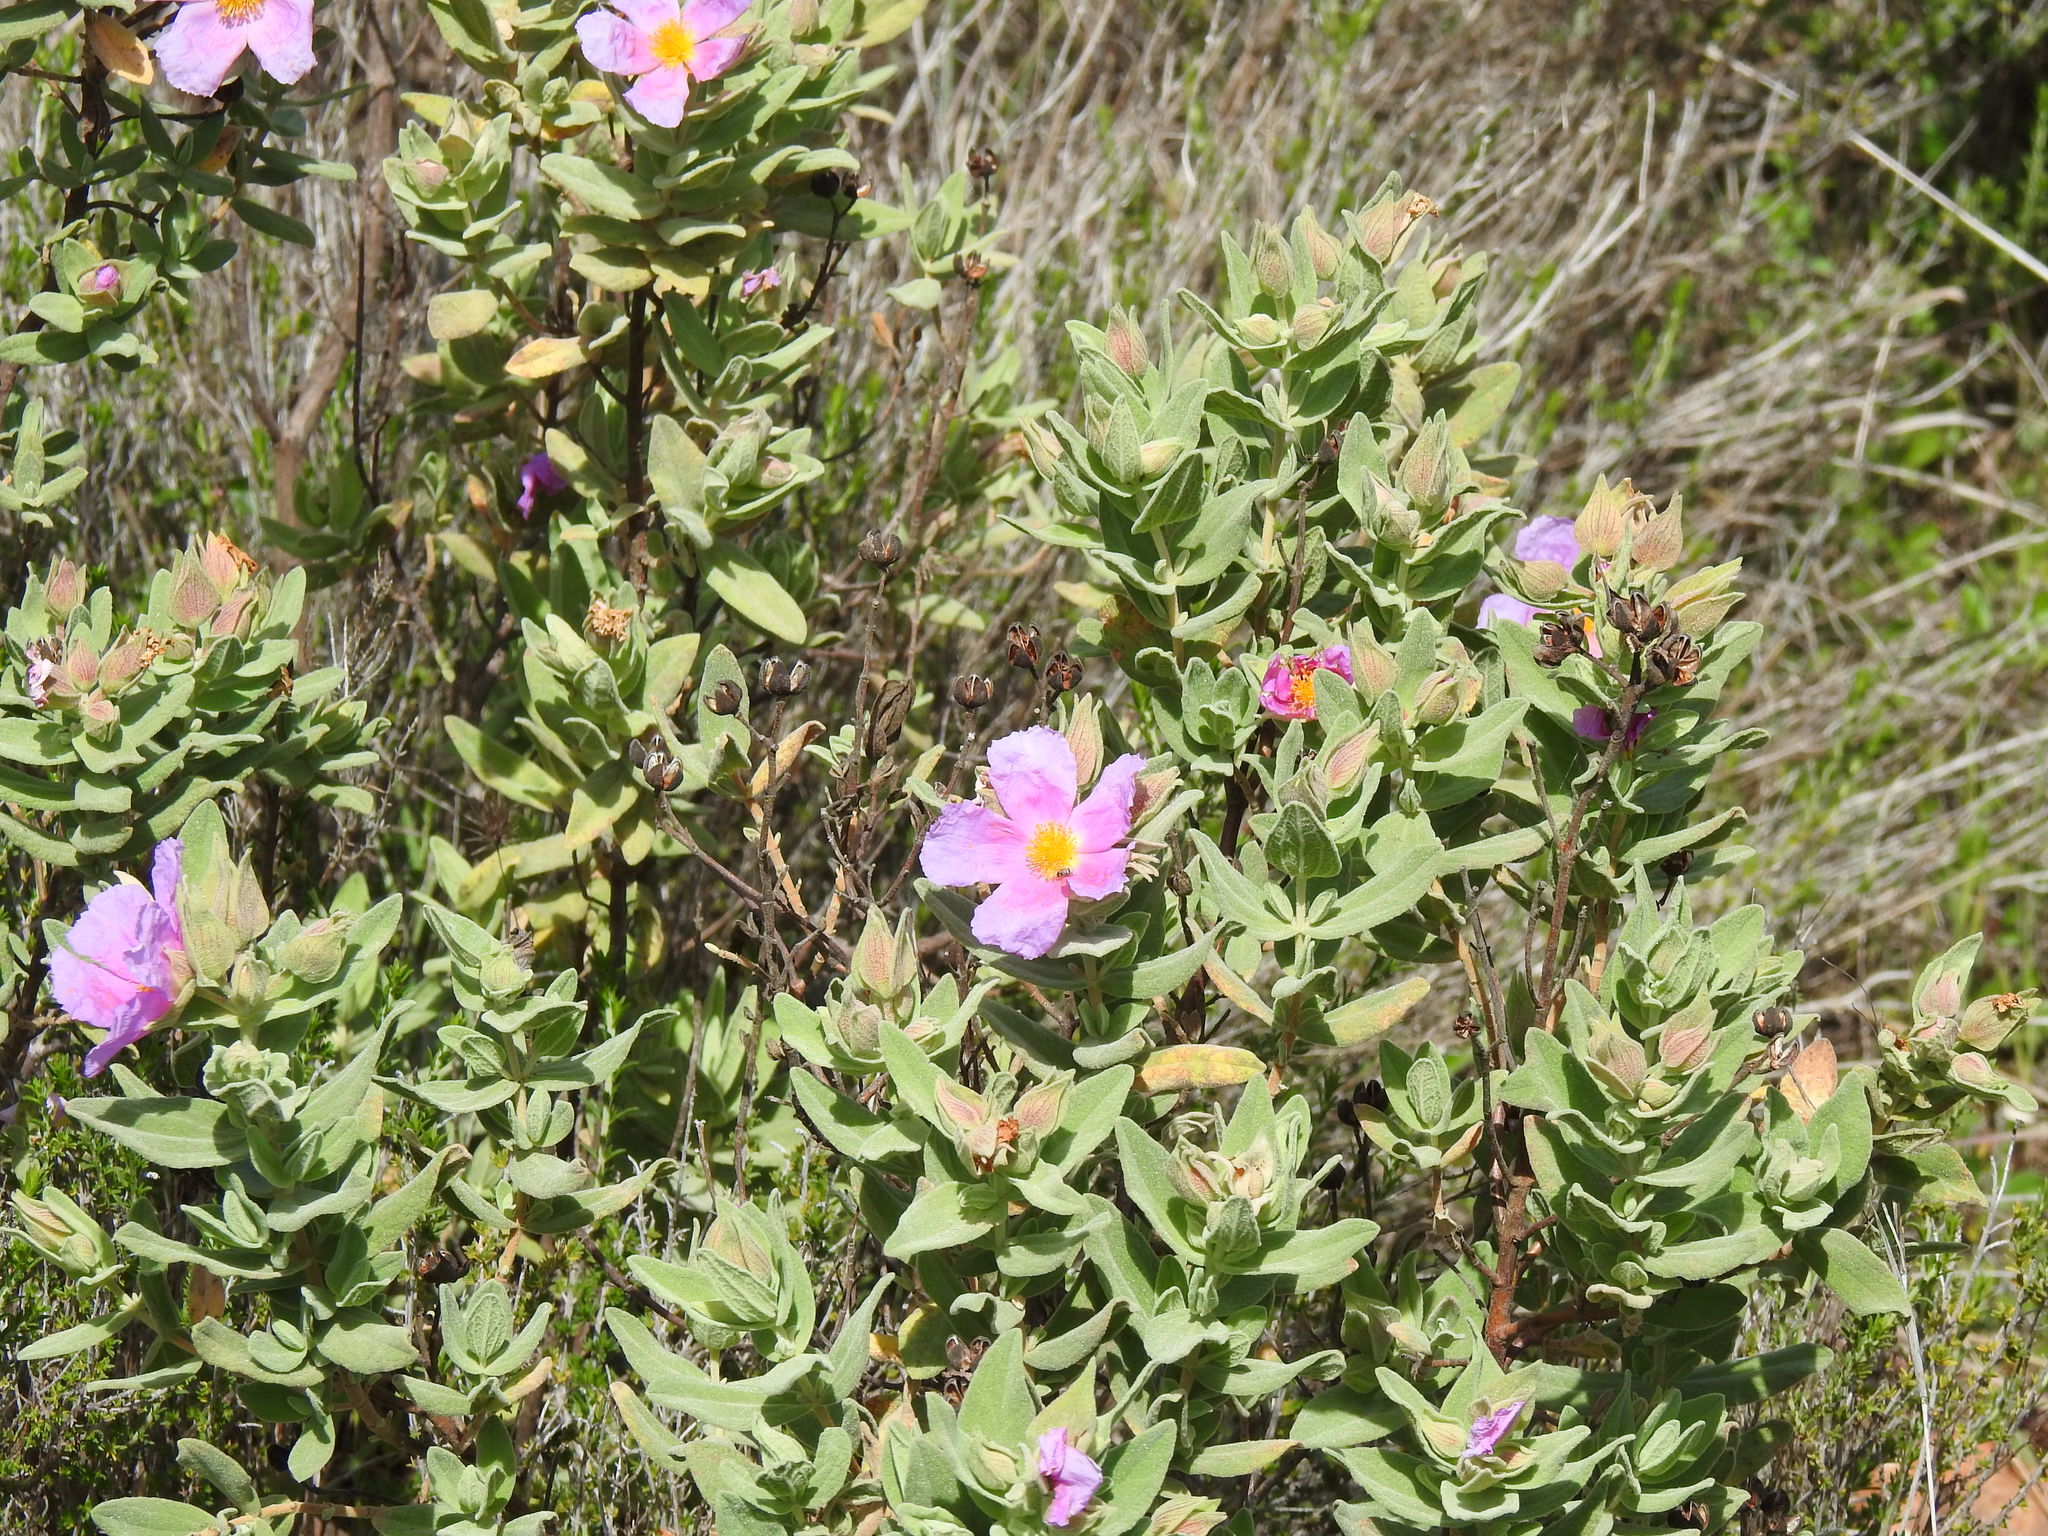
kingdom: Plantae
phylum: Tracheophyta
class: Magnoliopsida
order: Malvales
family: Cistaceae
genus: Cistus
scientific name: Cistus albidus
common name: White-leaf rock-rose
